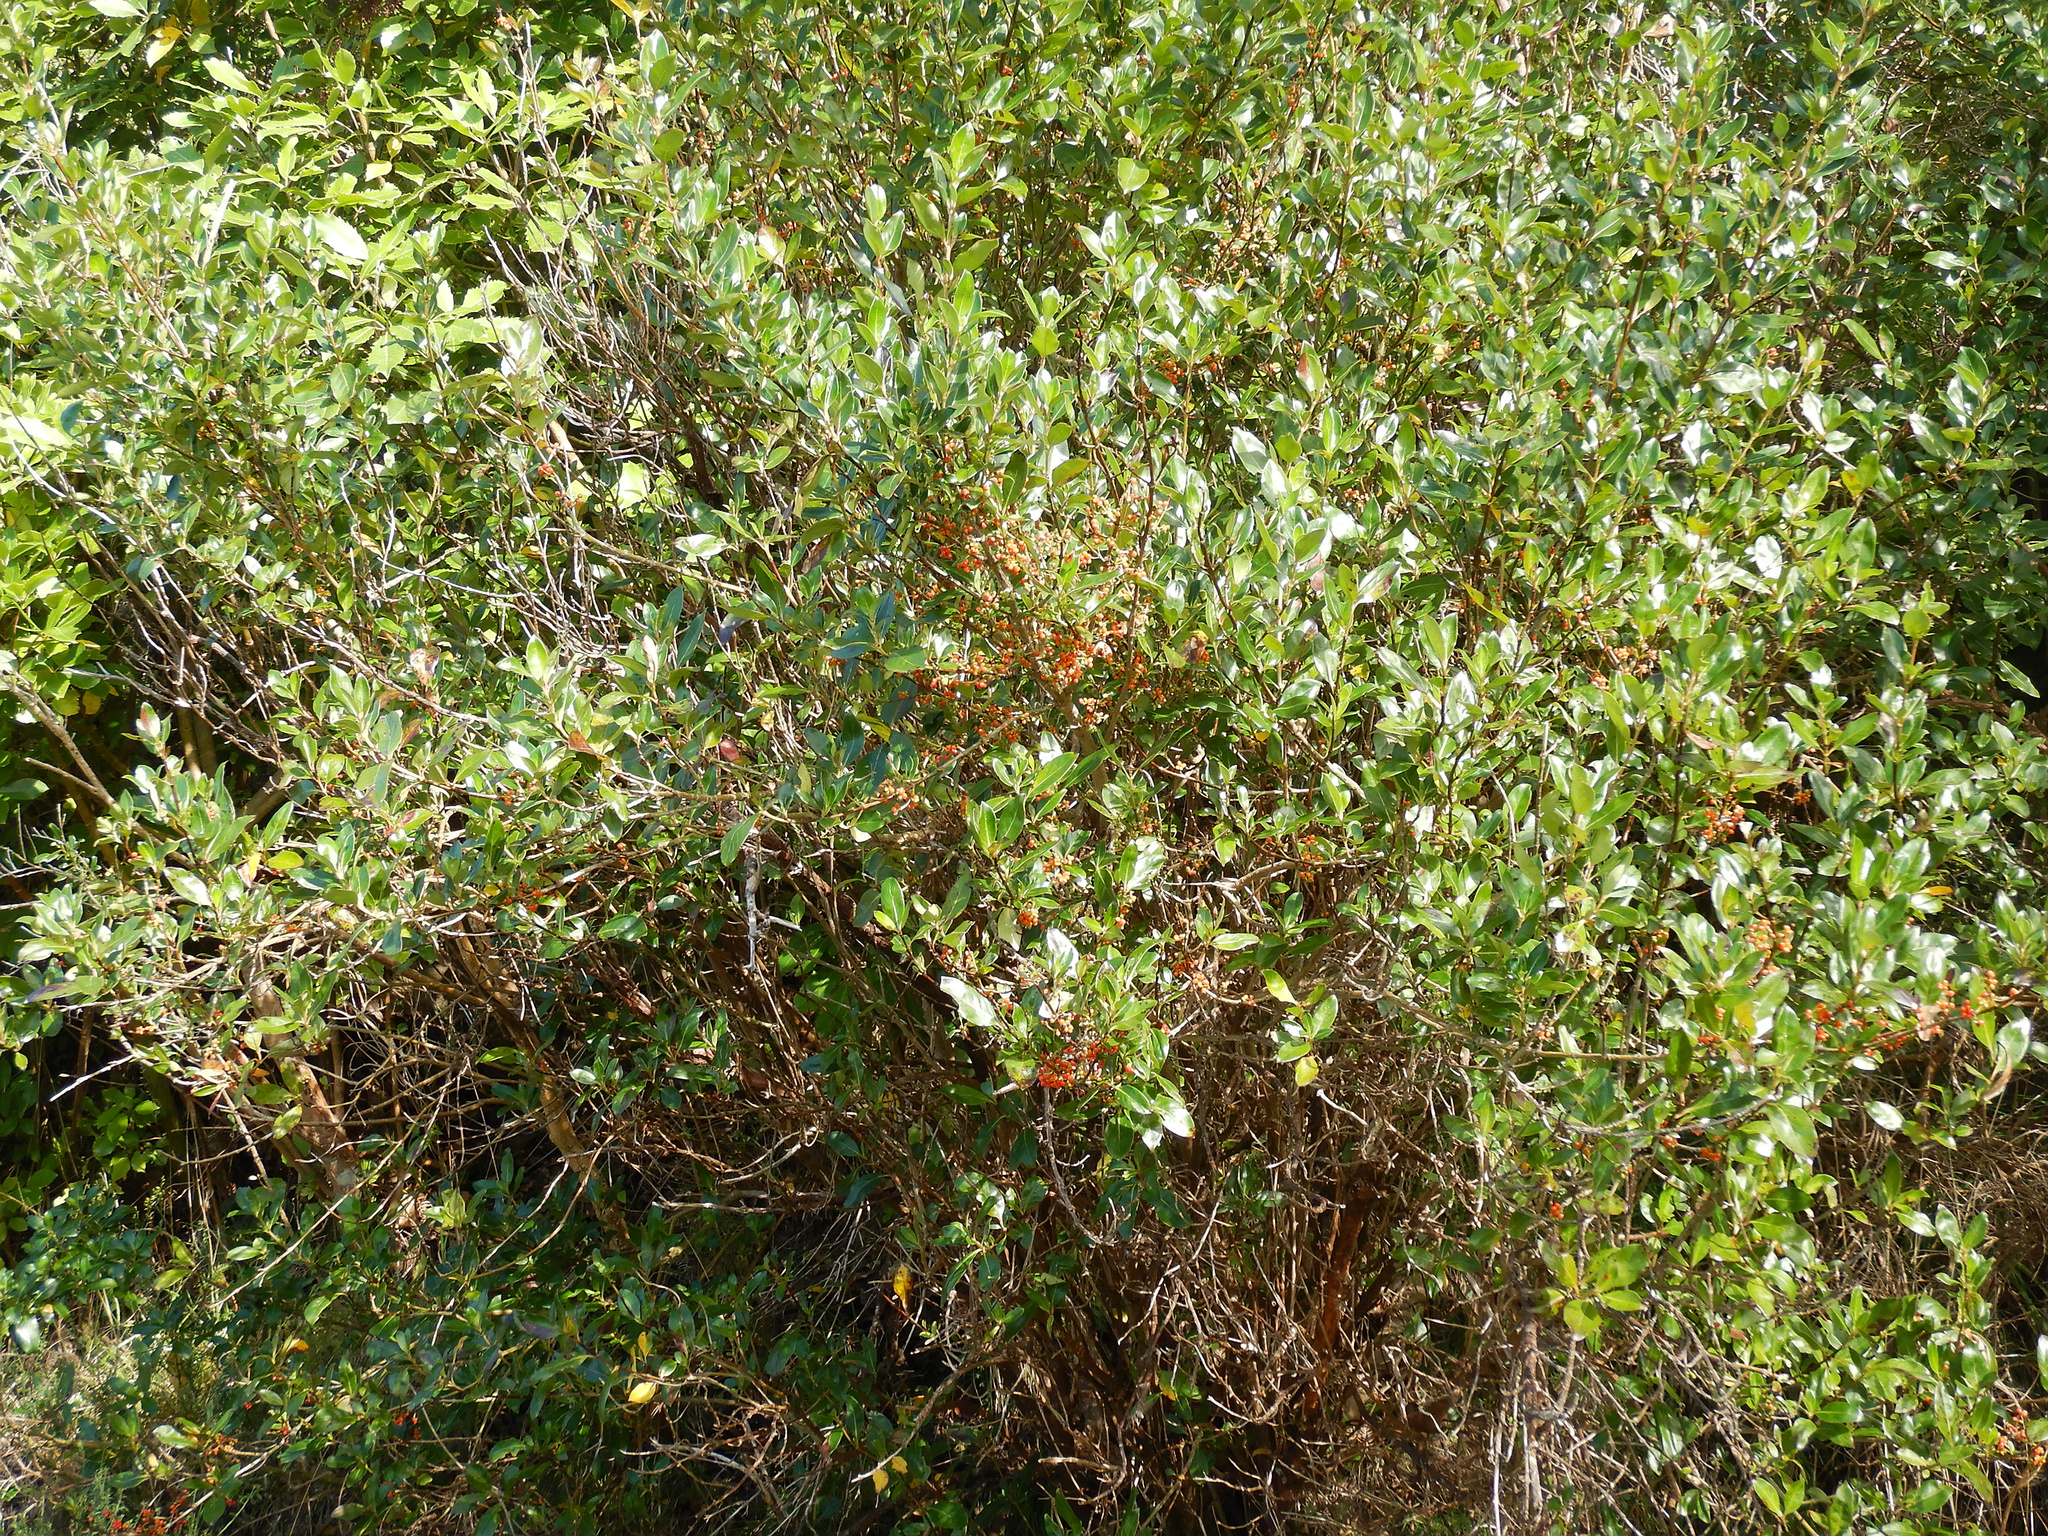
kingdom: Plantae
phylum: Tracheophyta
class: Magnoliopsida
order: Gentianales
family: Rubiaceae
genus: Coprosma
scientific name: Coprosma robusta
